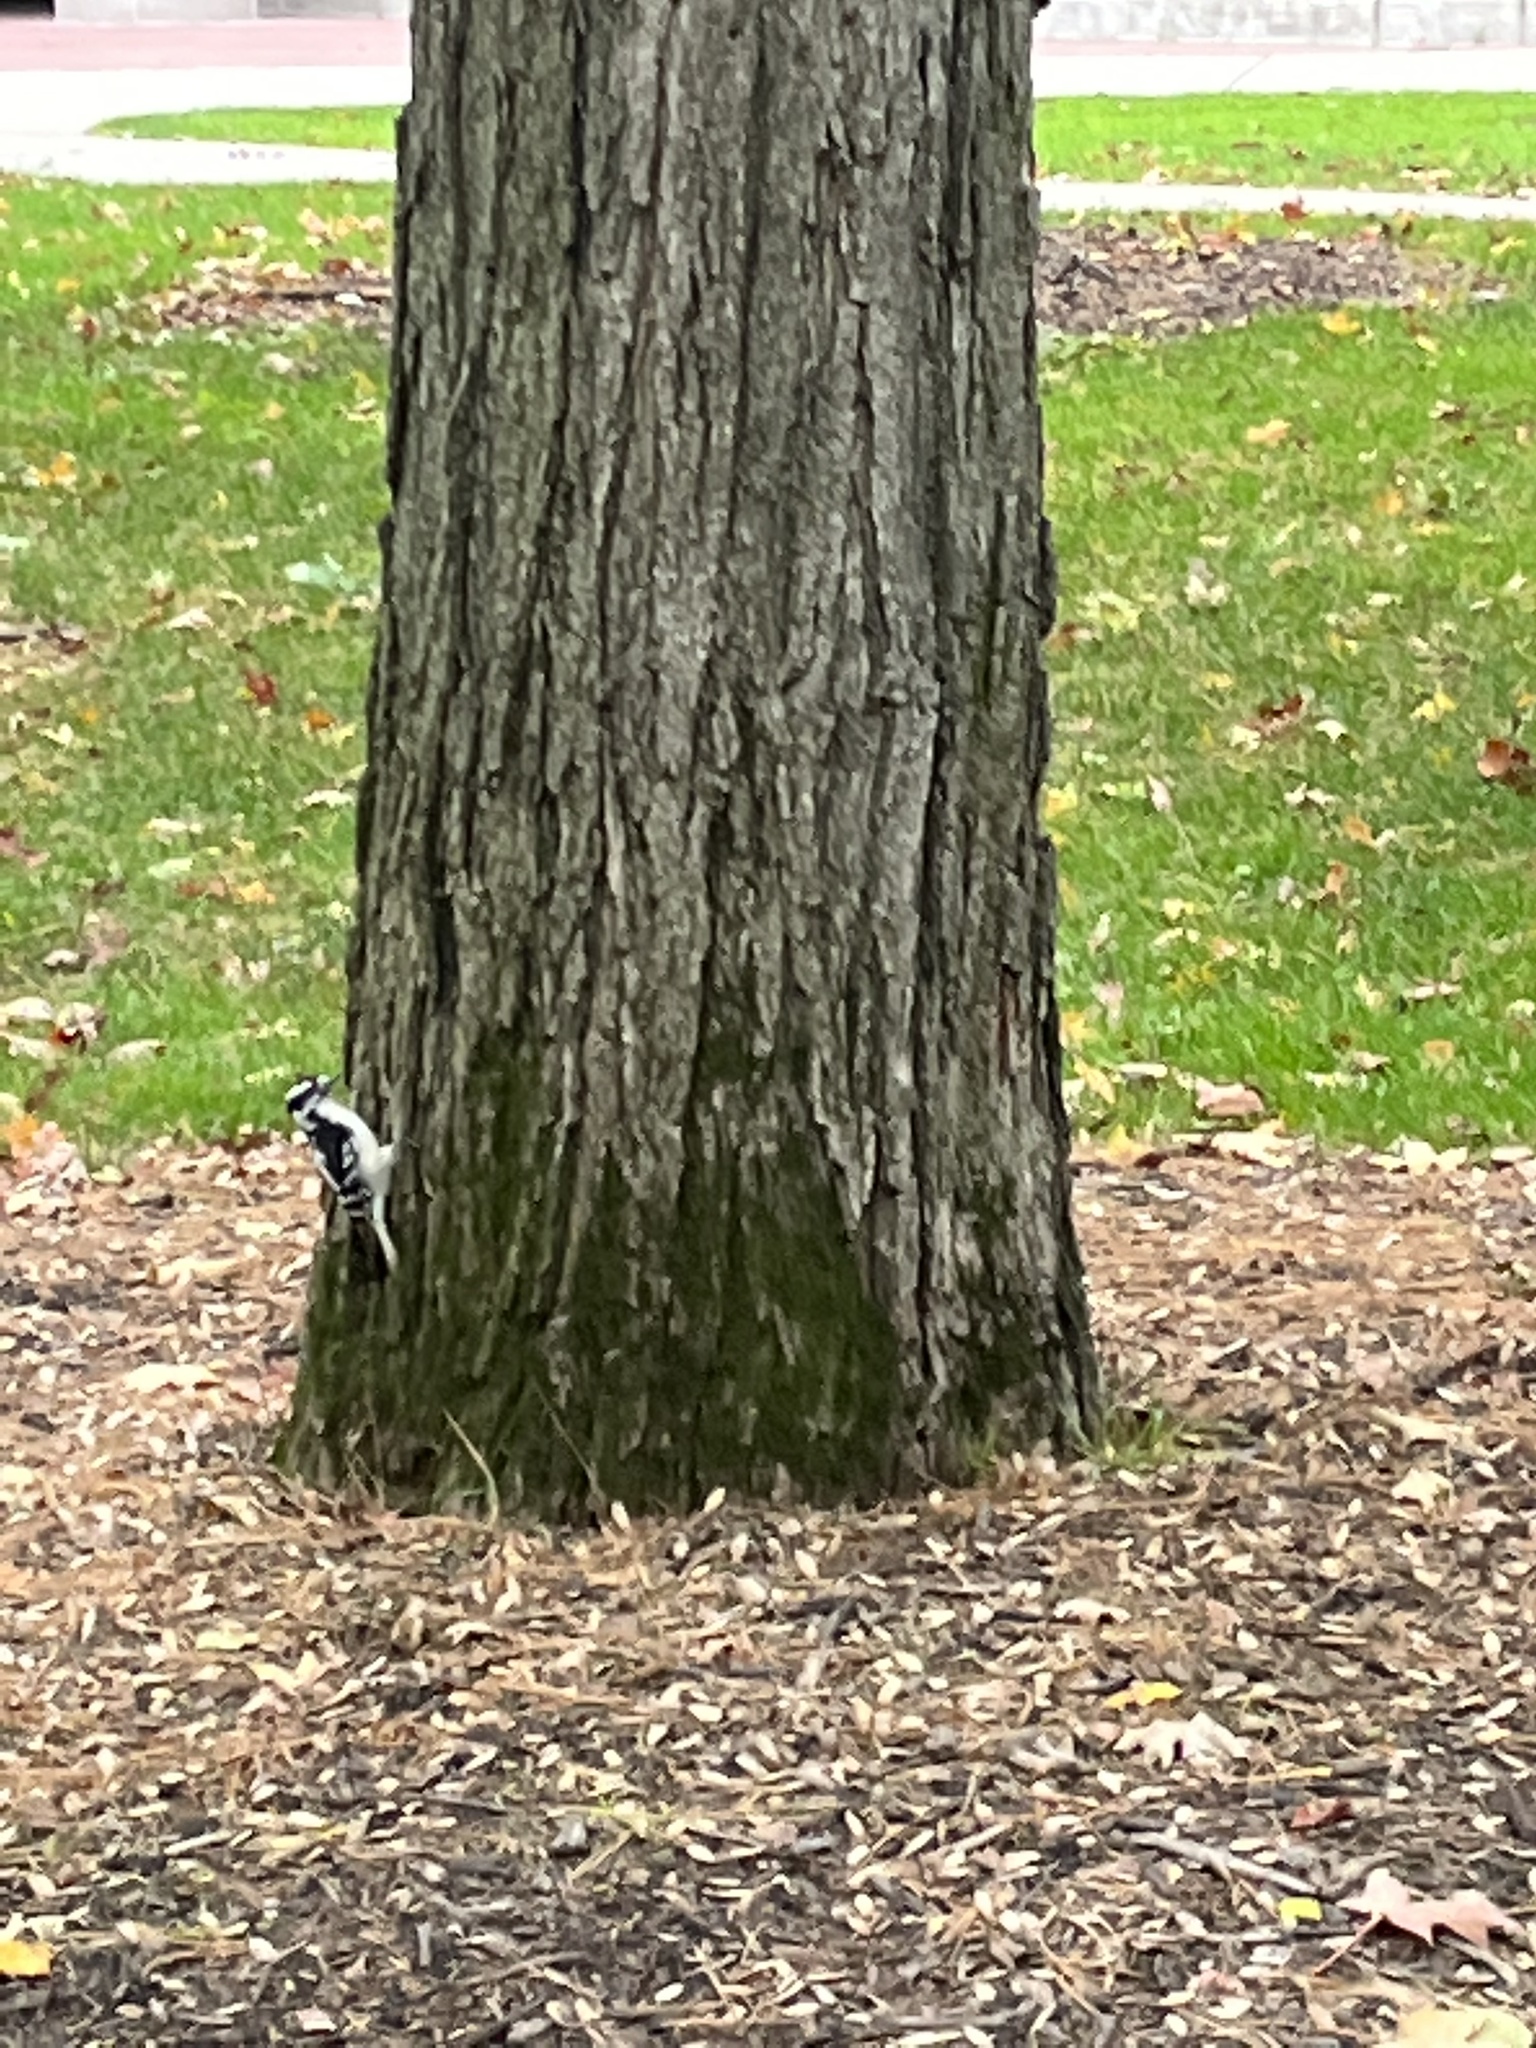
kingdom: Animalia
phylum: Chordata
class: Aves
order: Piciformes
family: Picidae
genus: Dryobates
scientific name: Dryobates pubescens
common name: Downy woodpecker
